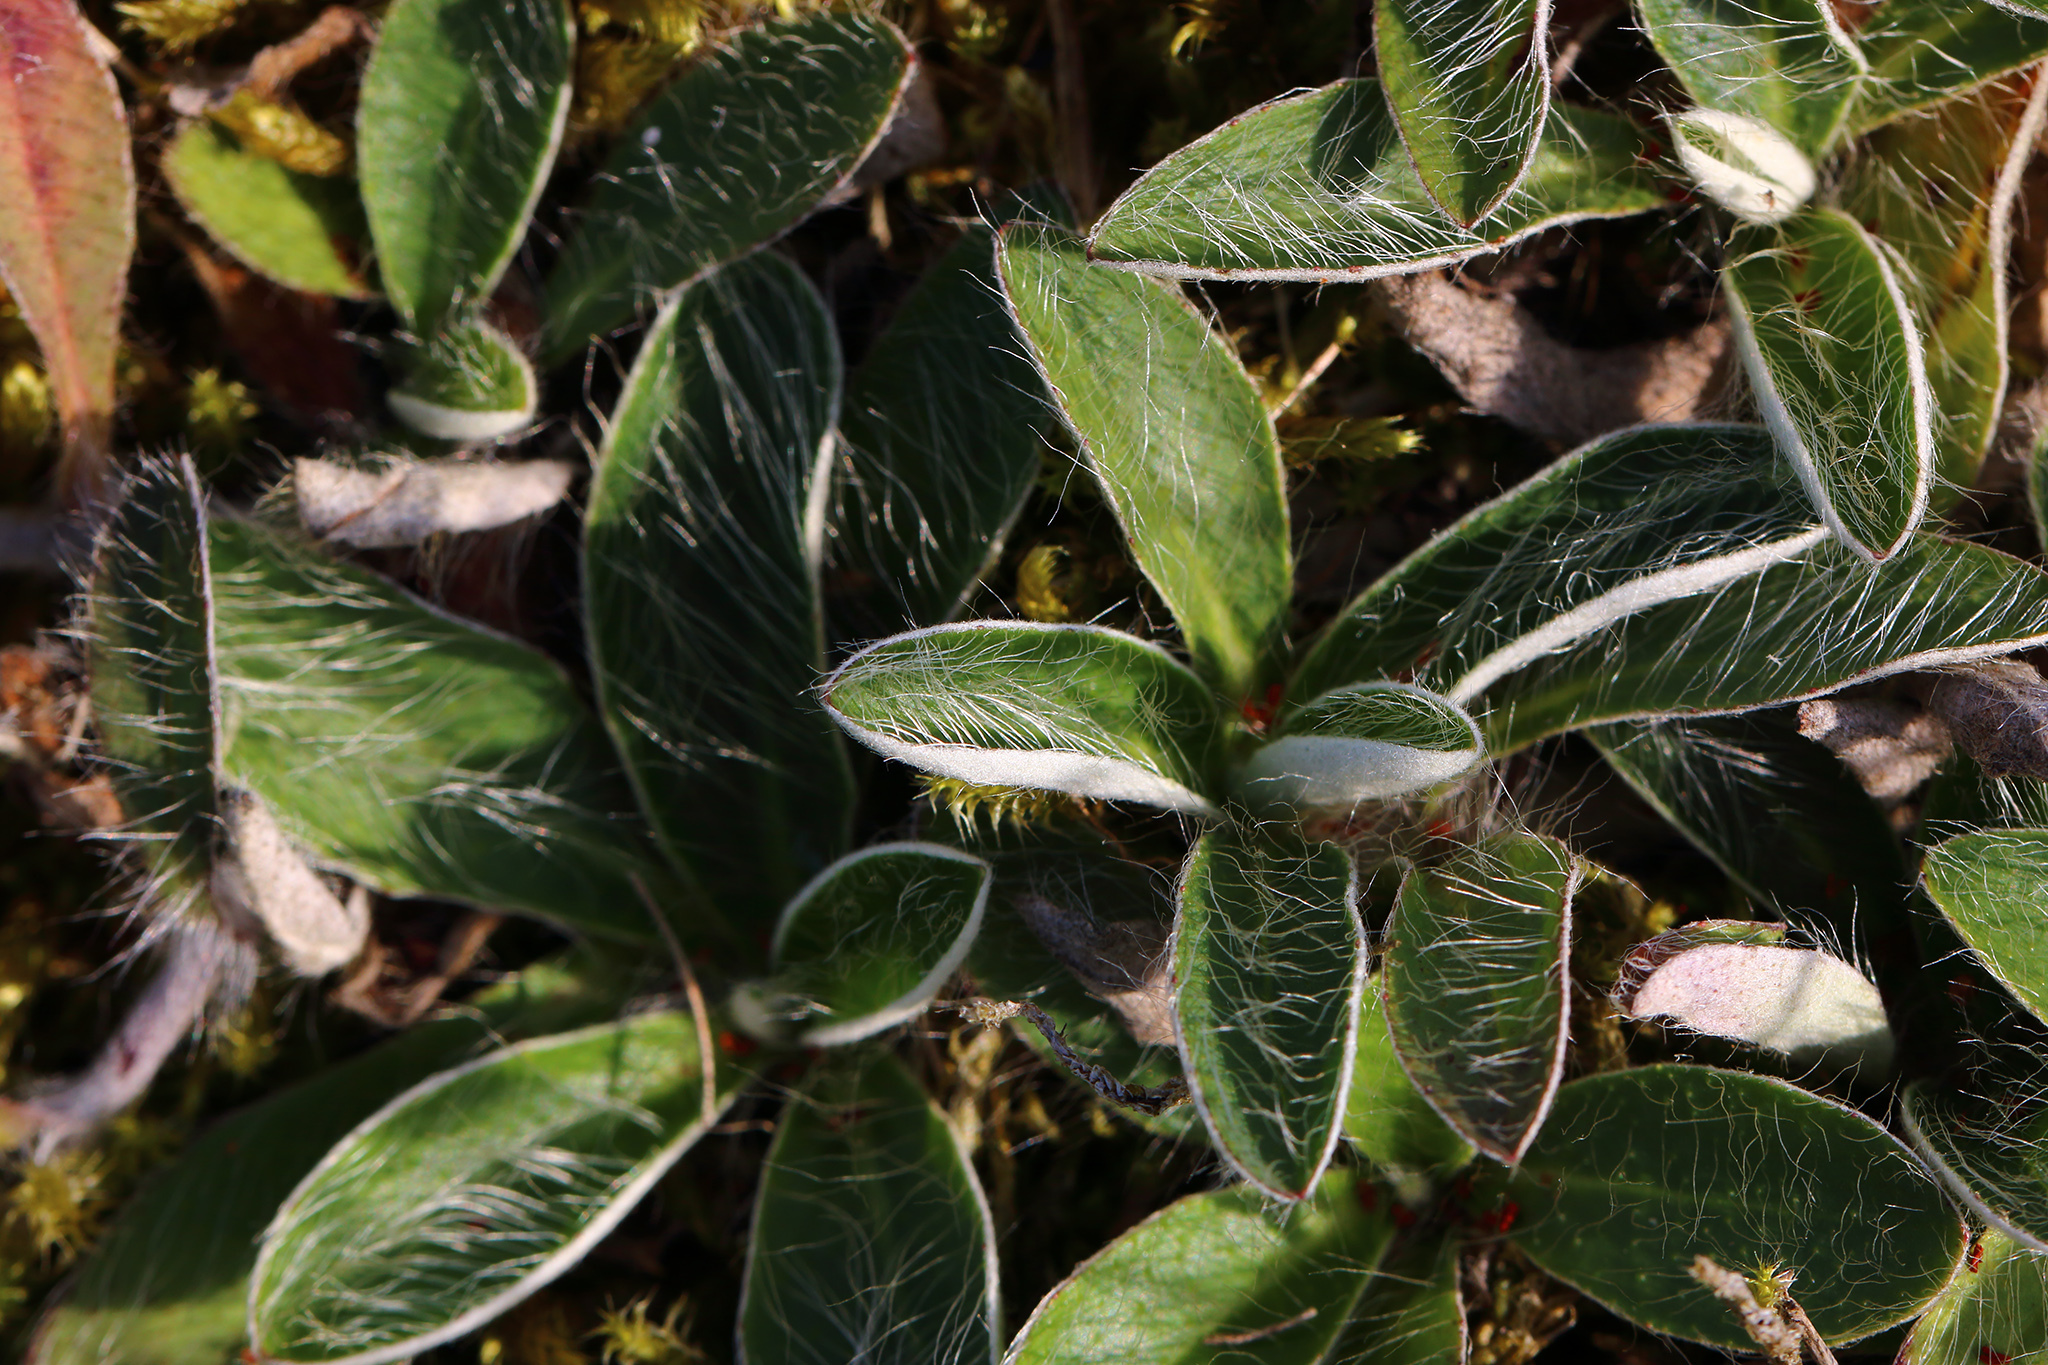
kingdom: Plantae
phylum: Tracheophyta
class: Magnoliopsida
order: Asterales
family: Asteraceae
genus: Pilosella
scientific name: Pilosella officinarum
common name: Mouse-ear hawkweed
